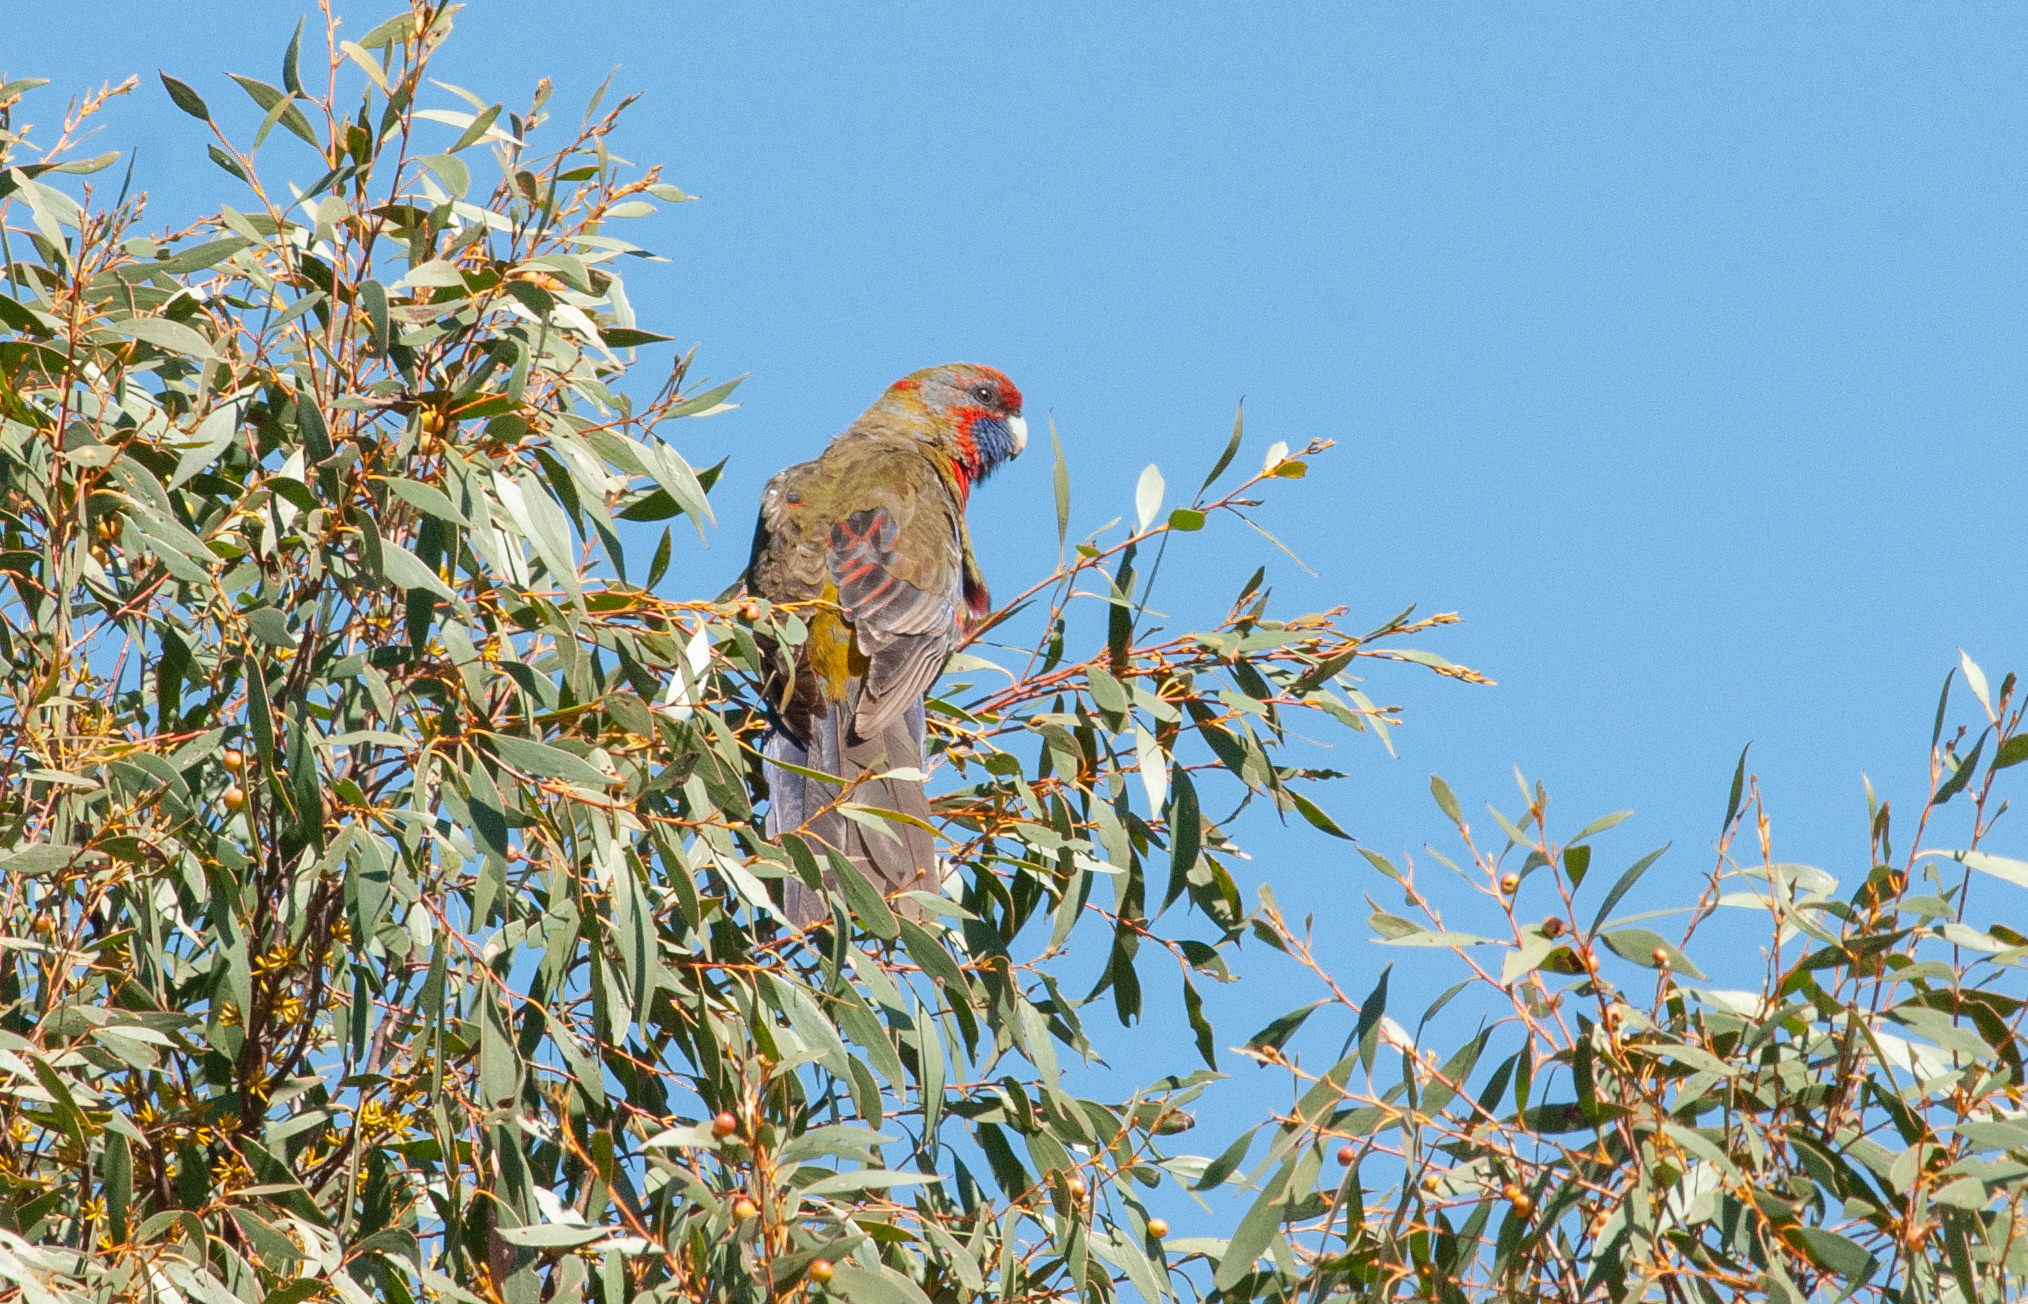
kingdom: Animalia
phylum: Chordata
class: Aves
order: Psittaciformes
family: Psittacidae
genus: Platycercus
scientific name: Platycercus elegans
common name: Crimson rosella
